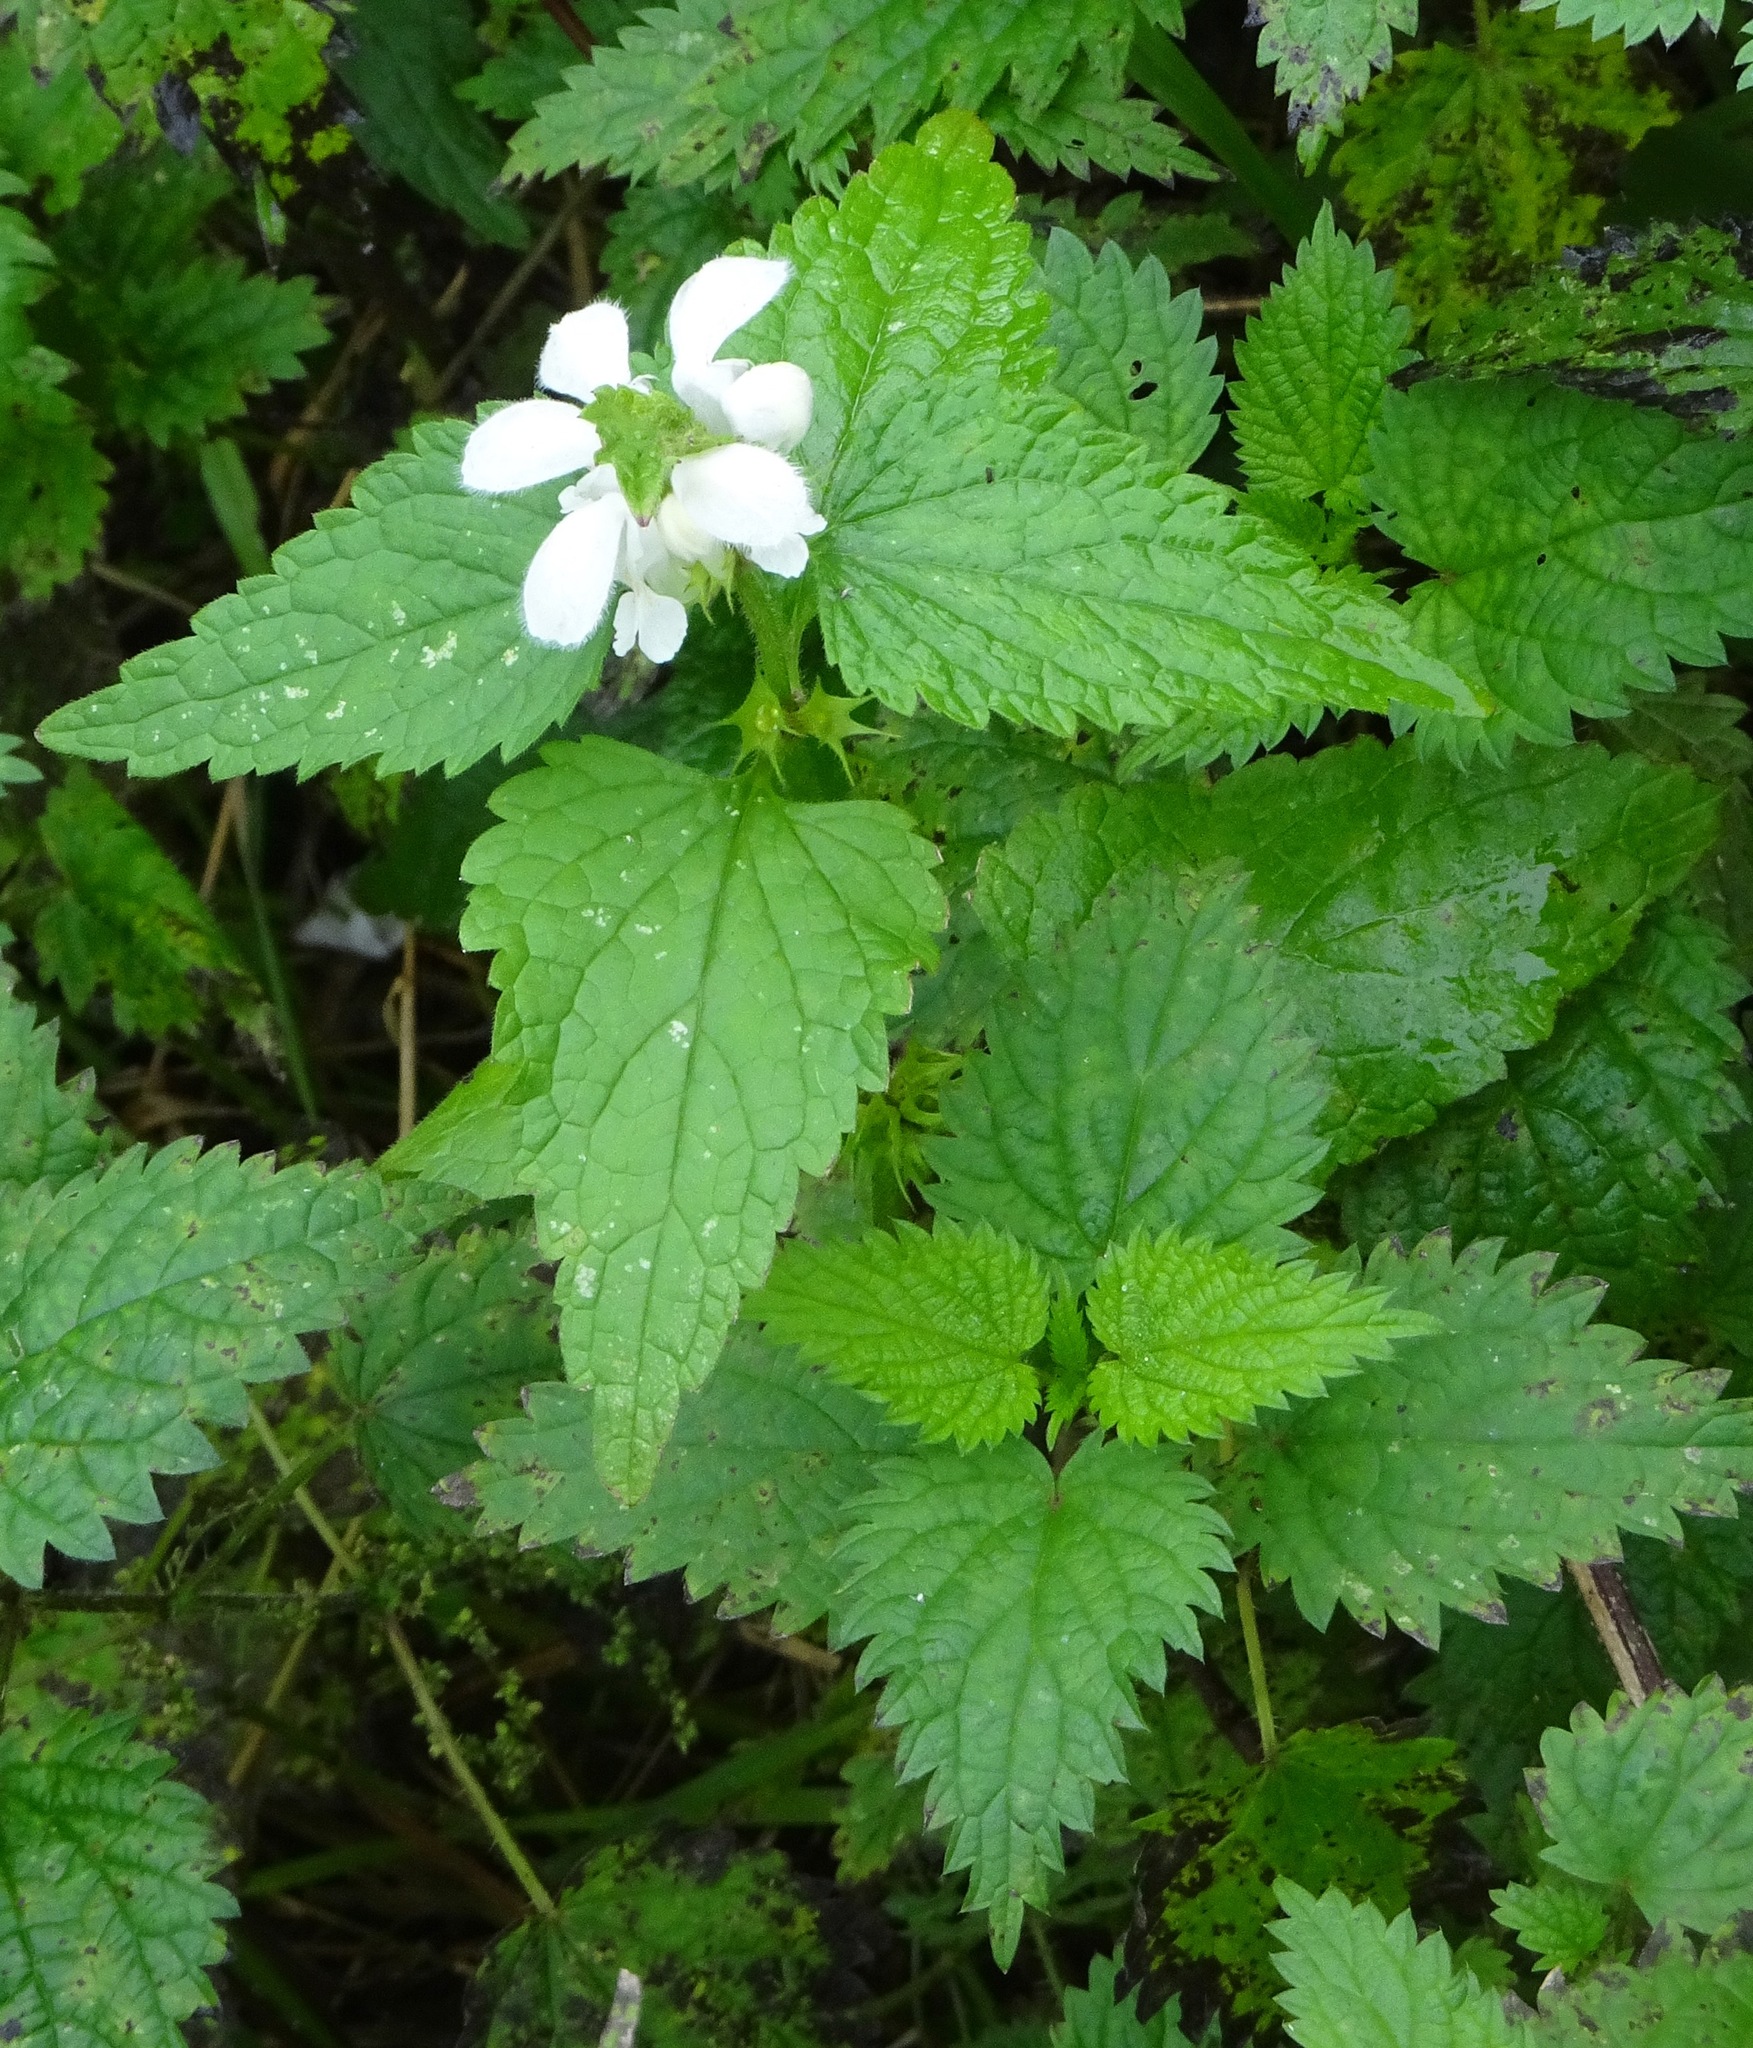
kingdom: Plantae
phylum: Tracheophyta
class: Magnoliopsida
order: Lamiales
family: Lamiaceae
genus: Lamium
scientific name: Lamium album
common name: White dead-nettle
